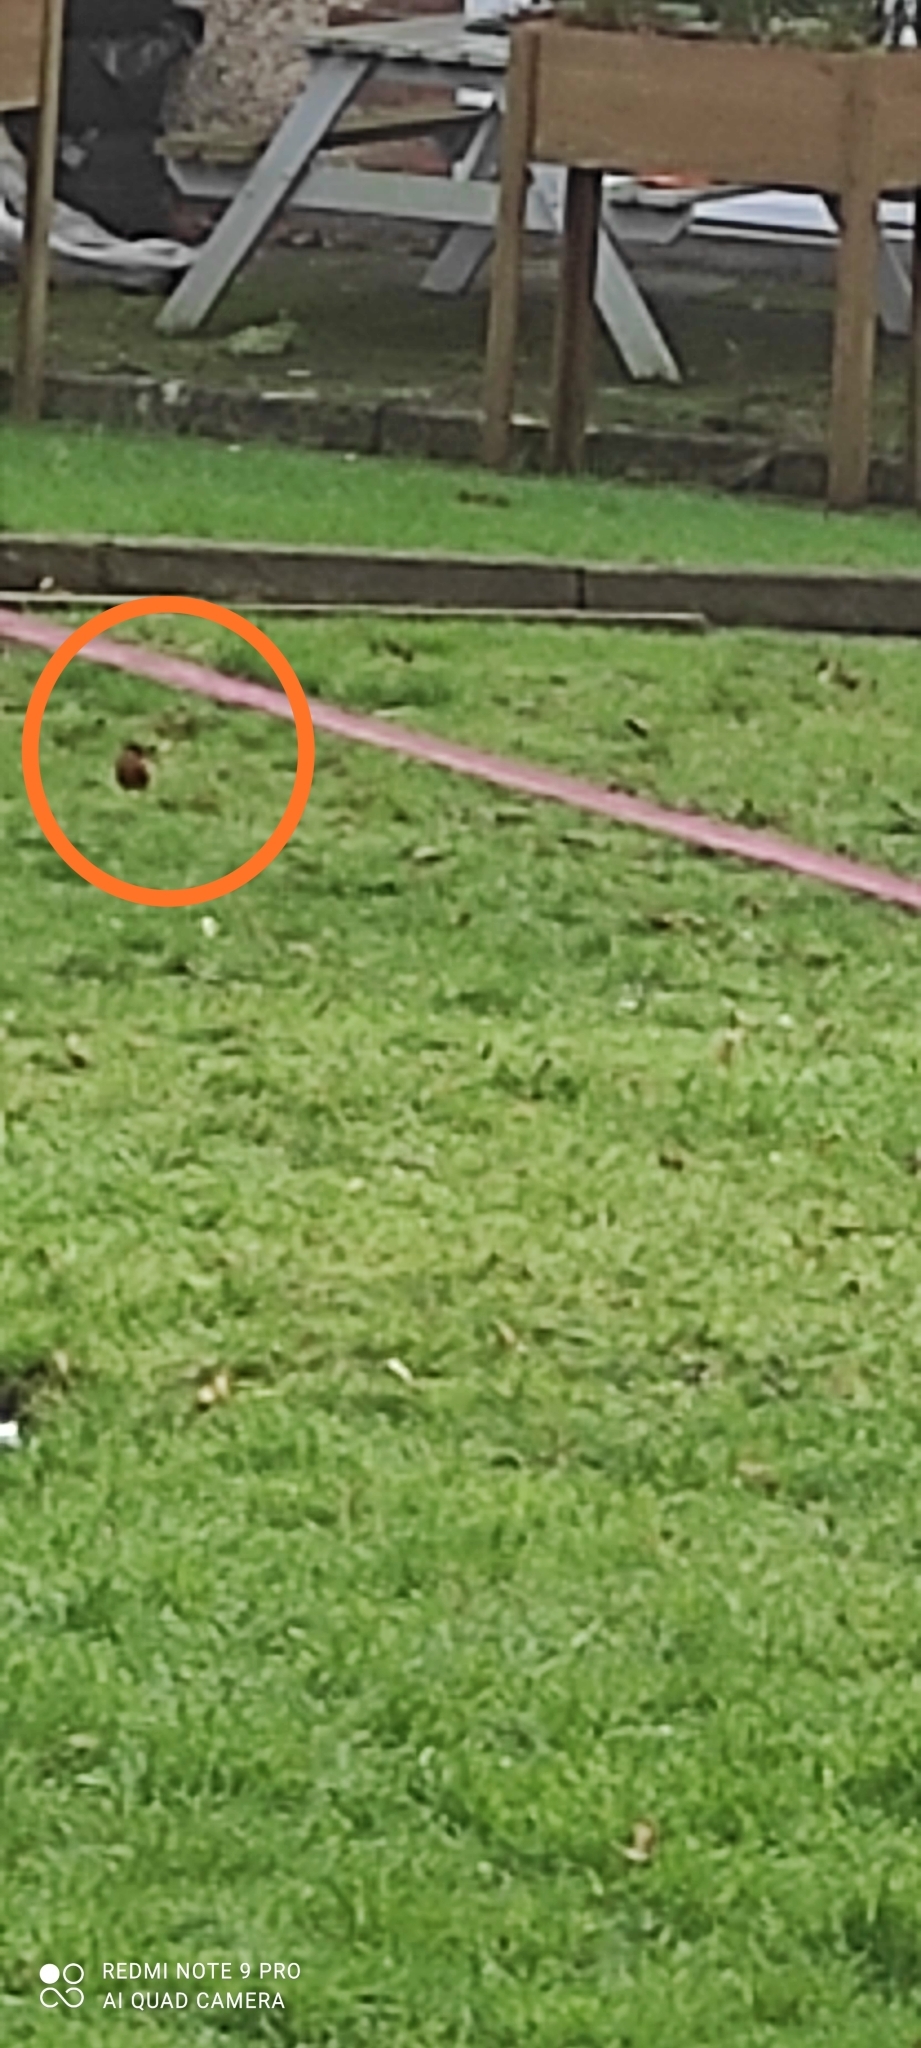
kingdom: Animalia
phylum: Chordata
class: Aves
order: Passeriformes
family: Fringillidae
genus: Pyrrhula
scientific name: Pyrrhula pyrrhula
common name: Eurasian bullfinch
